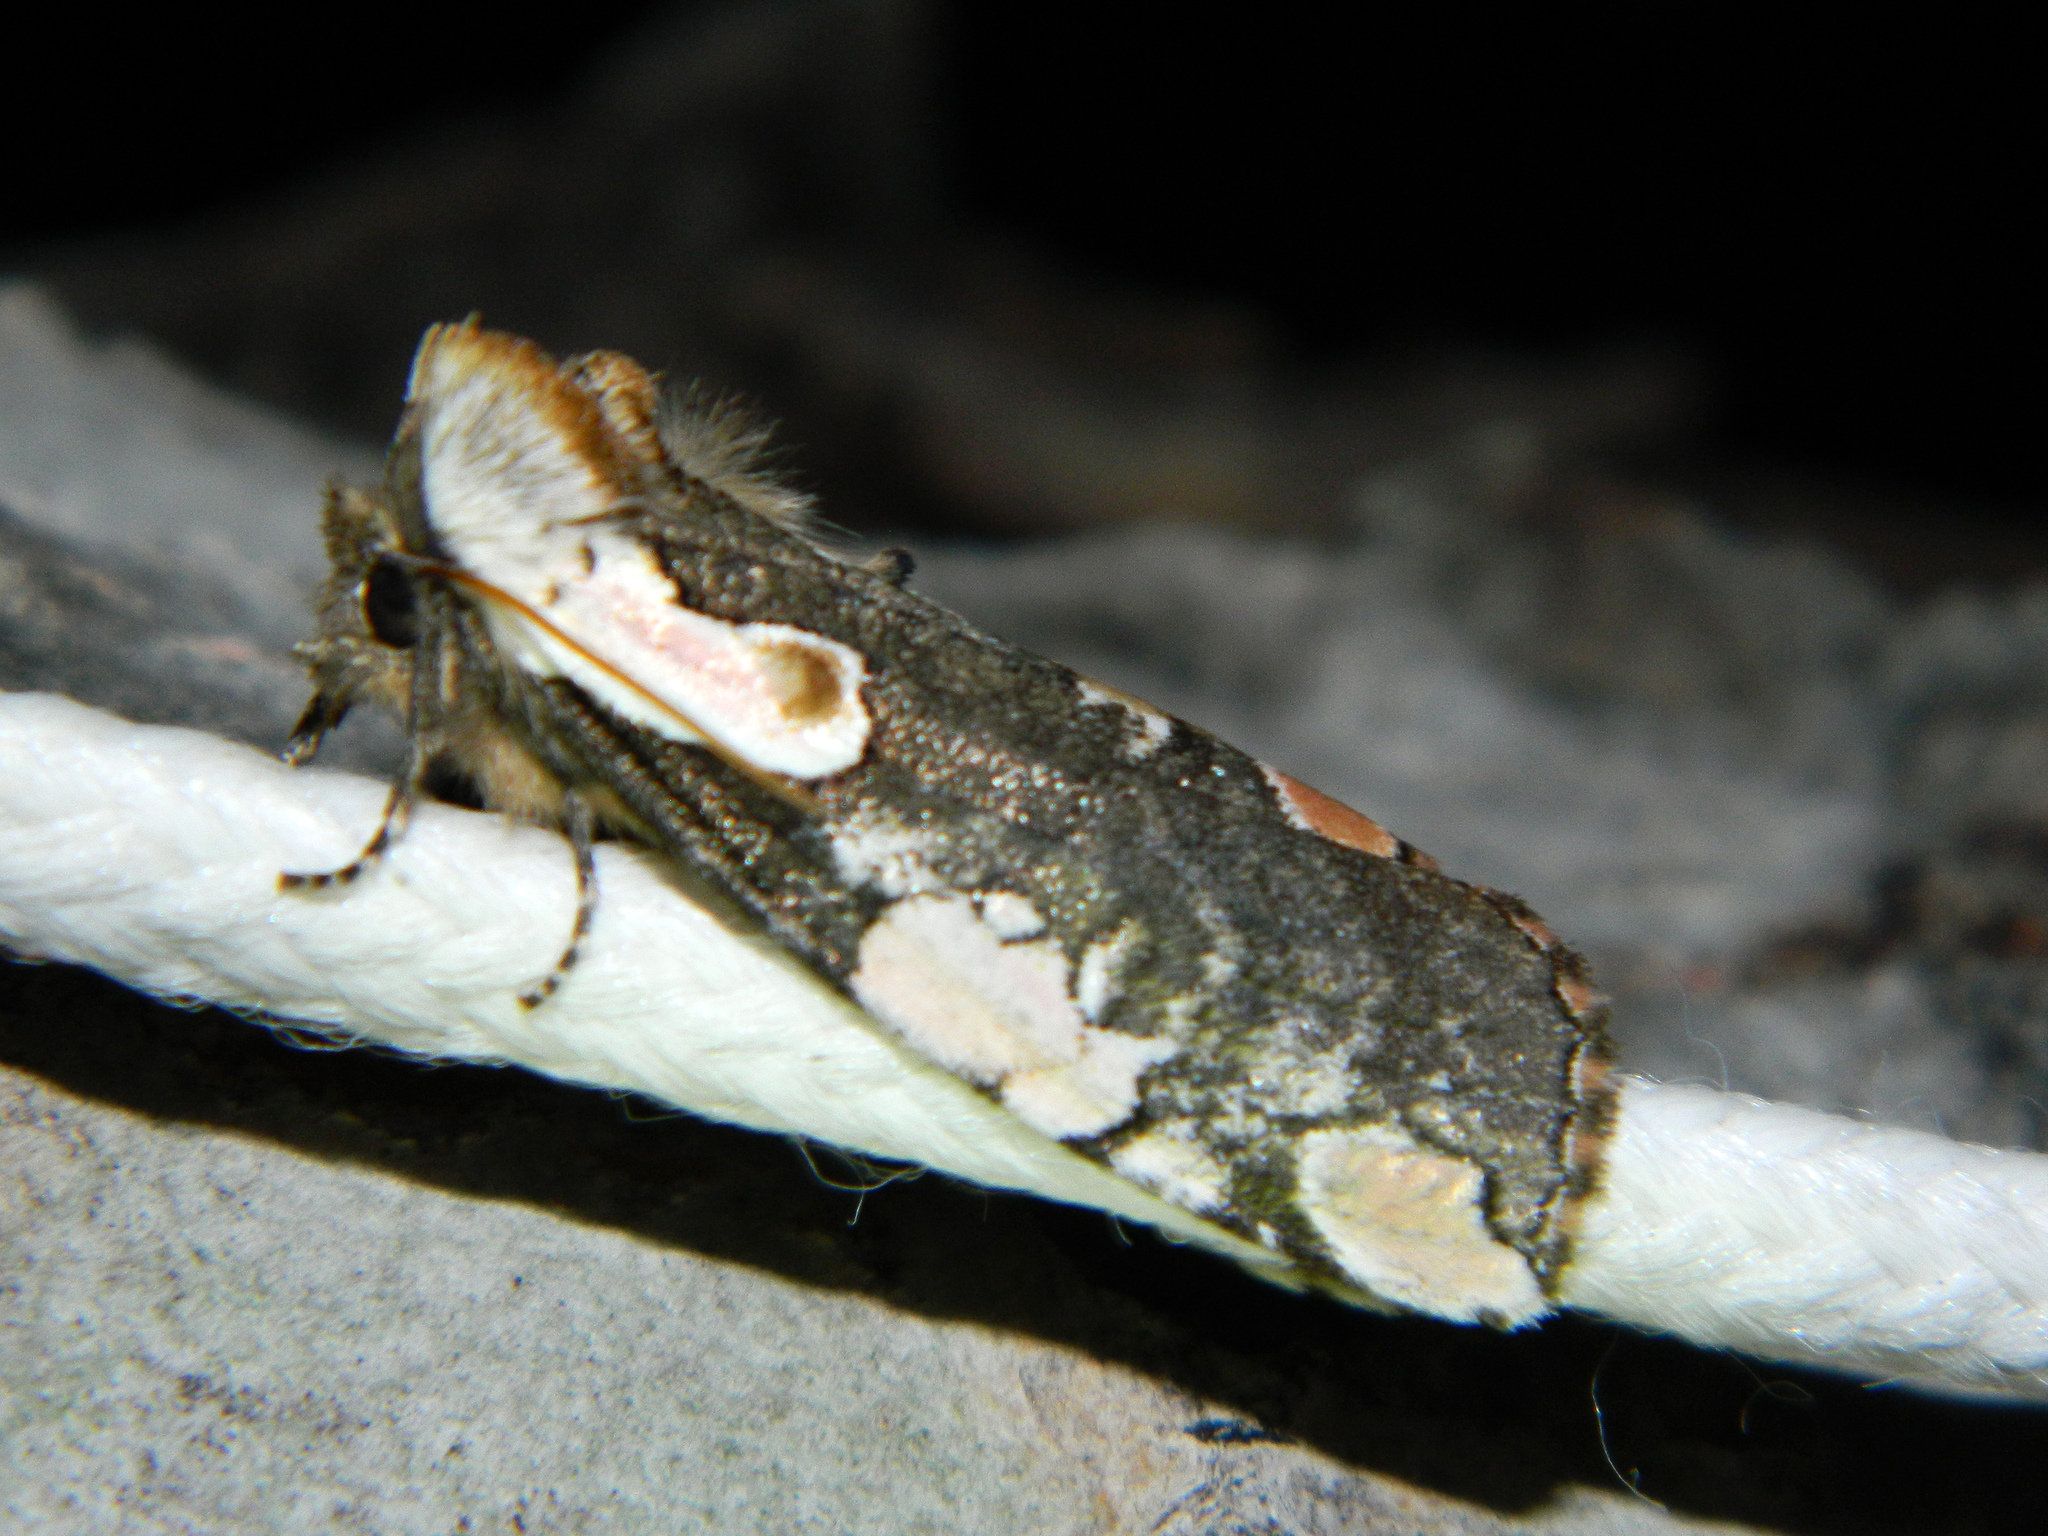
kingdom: Animalia
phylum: Arthropoda
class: Insecta
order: Lepidoptera
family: Drepanidae
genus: Euthyatira
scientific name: Euthyatira pudens
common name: Dogwood thyatirid moth
